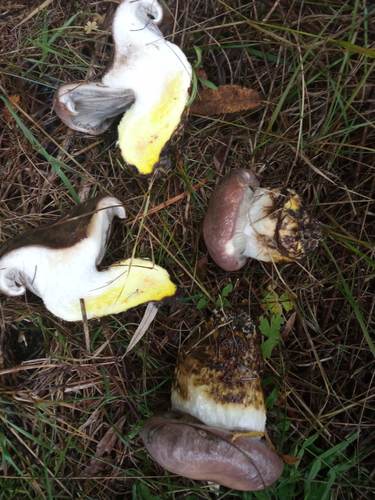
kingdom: Fungi
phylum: Basidiomycota
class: Agaricomycetes
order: Boletales
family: Gomphidiaceae
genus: Gomphidius
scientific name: Gomphidius glutinosus
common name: Slimy spike
